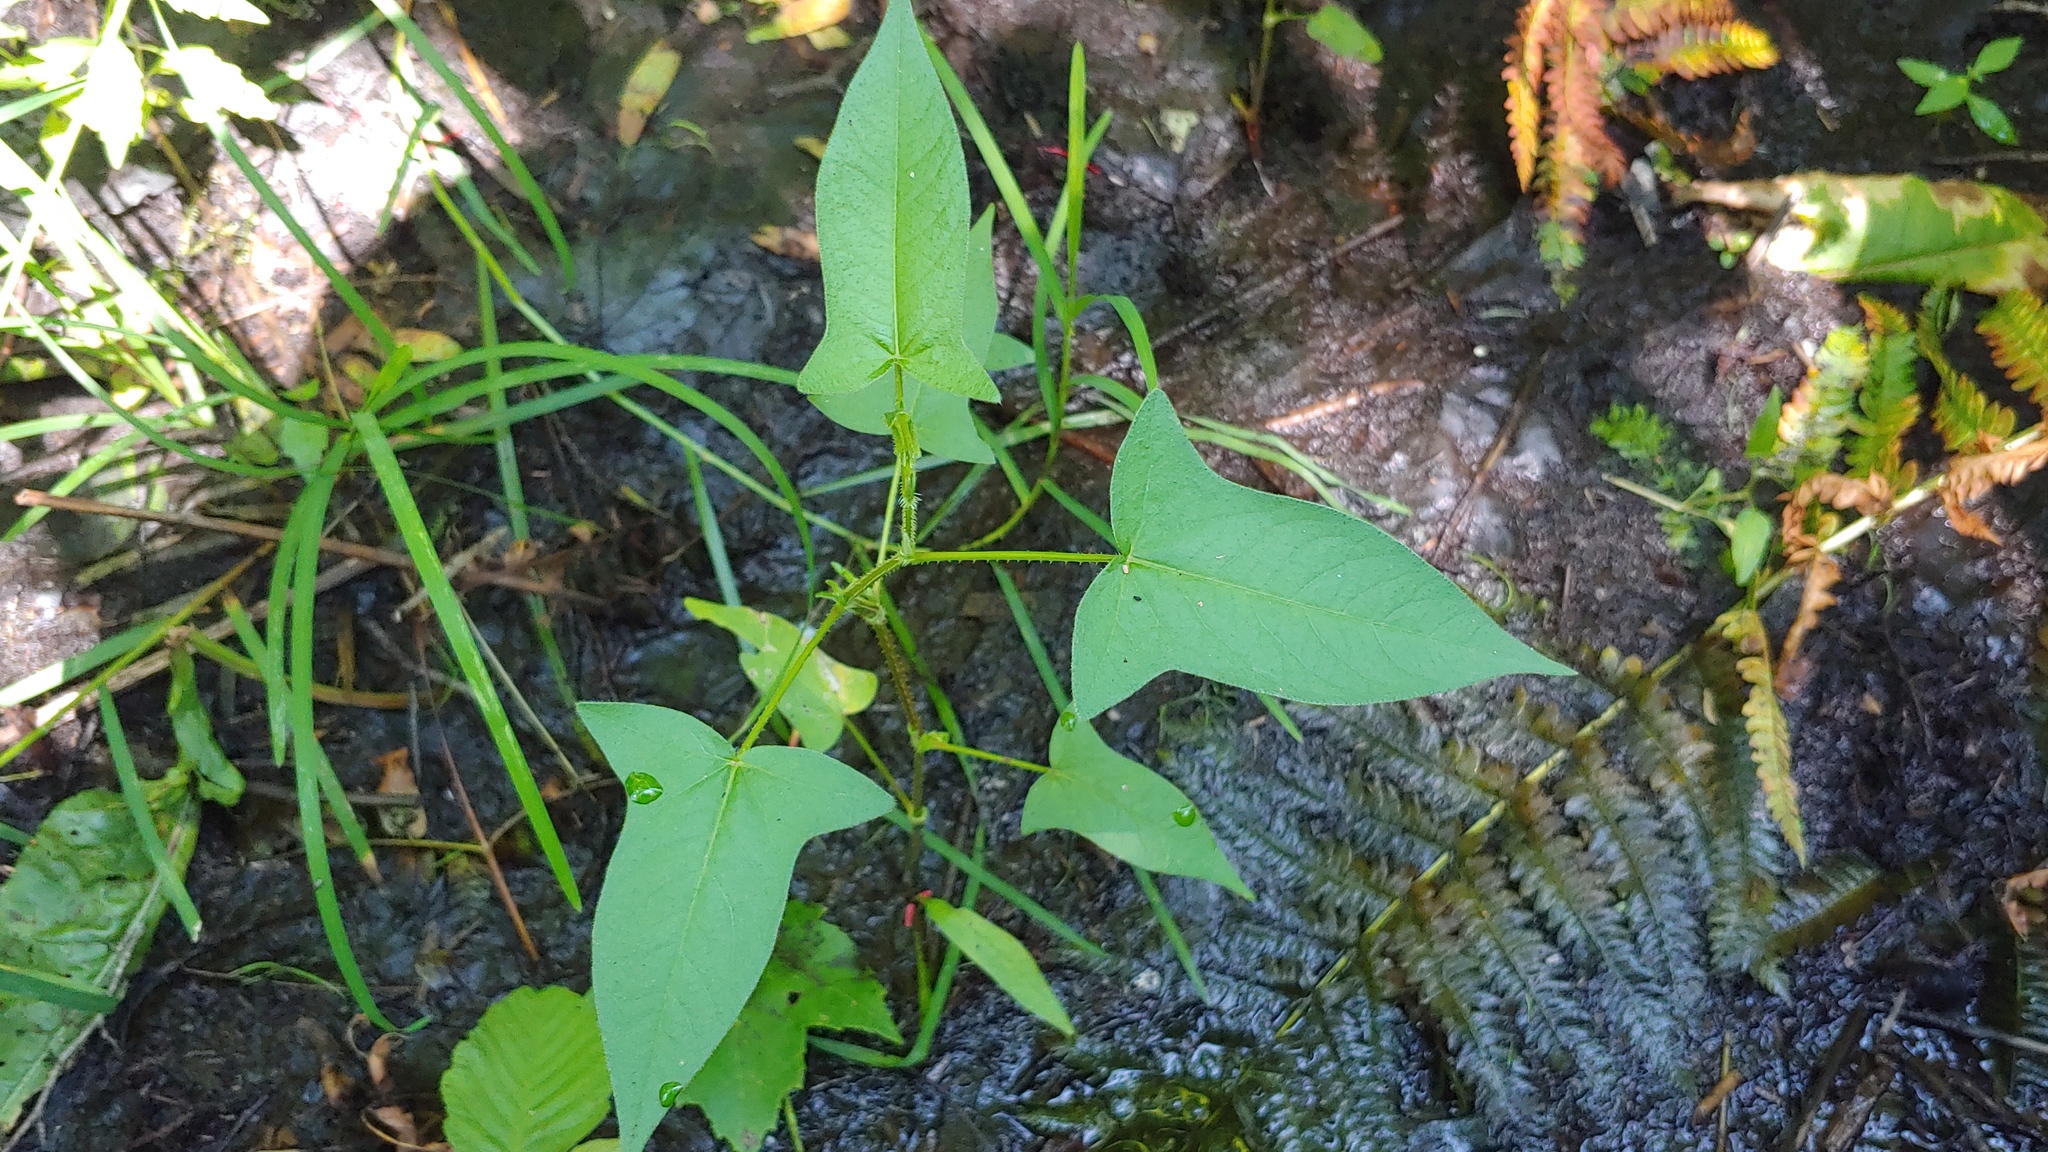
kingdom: Plantae
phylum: Tracheophyta
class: Magnoliopsida
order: Caryophyllales
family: Polygonaceae
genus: Persicaria
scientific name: Persicaria arifolia
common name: Halberd-leaved tear-thumb
